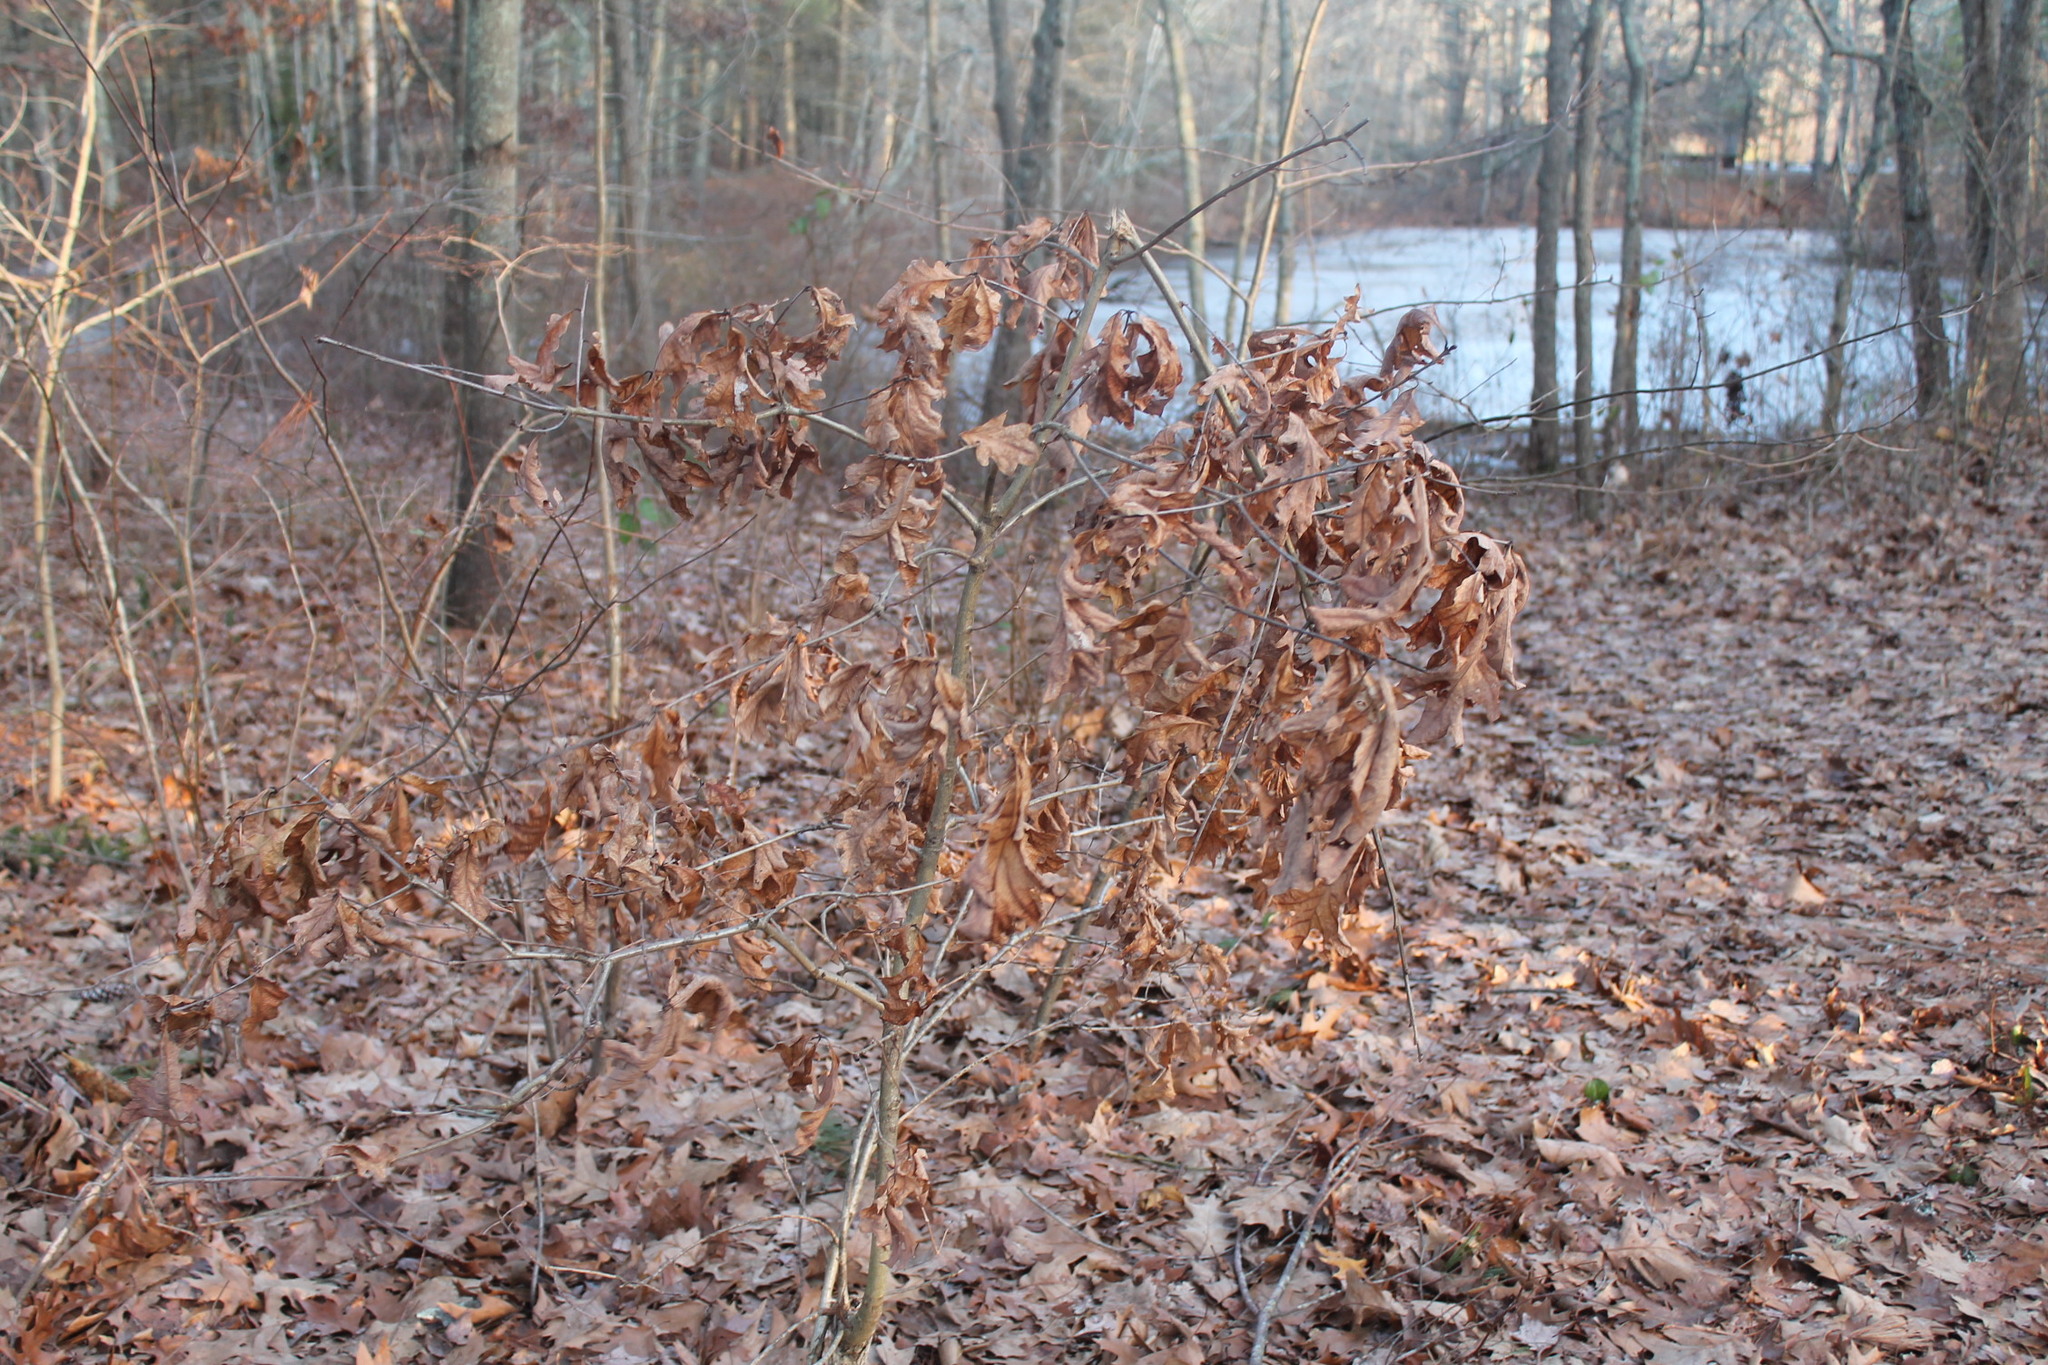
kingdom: Plantae
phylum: Tracheophyta
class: Magnoliopsida
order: Fagales
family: Fagaceae
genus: Quercus
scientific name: Quercus alba
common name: White oak
